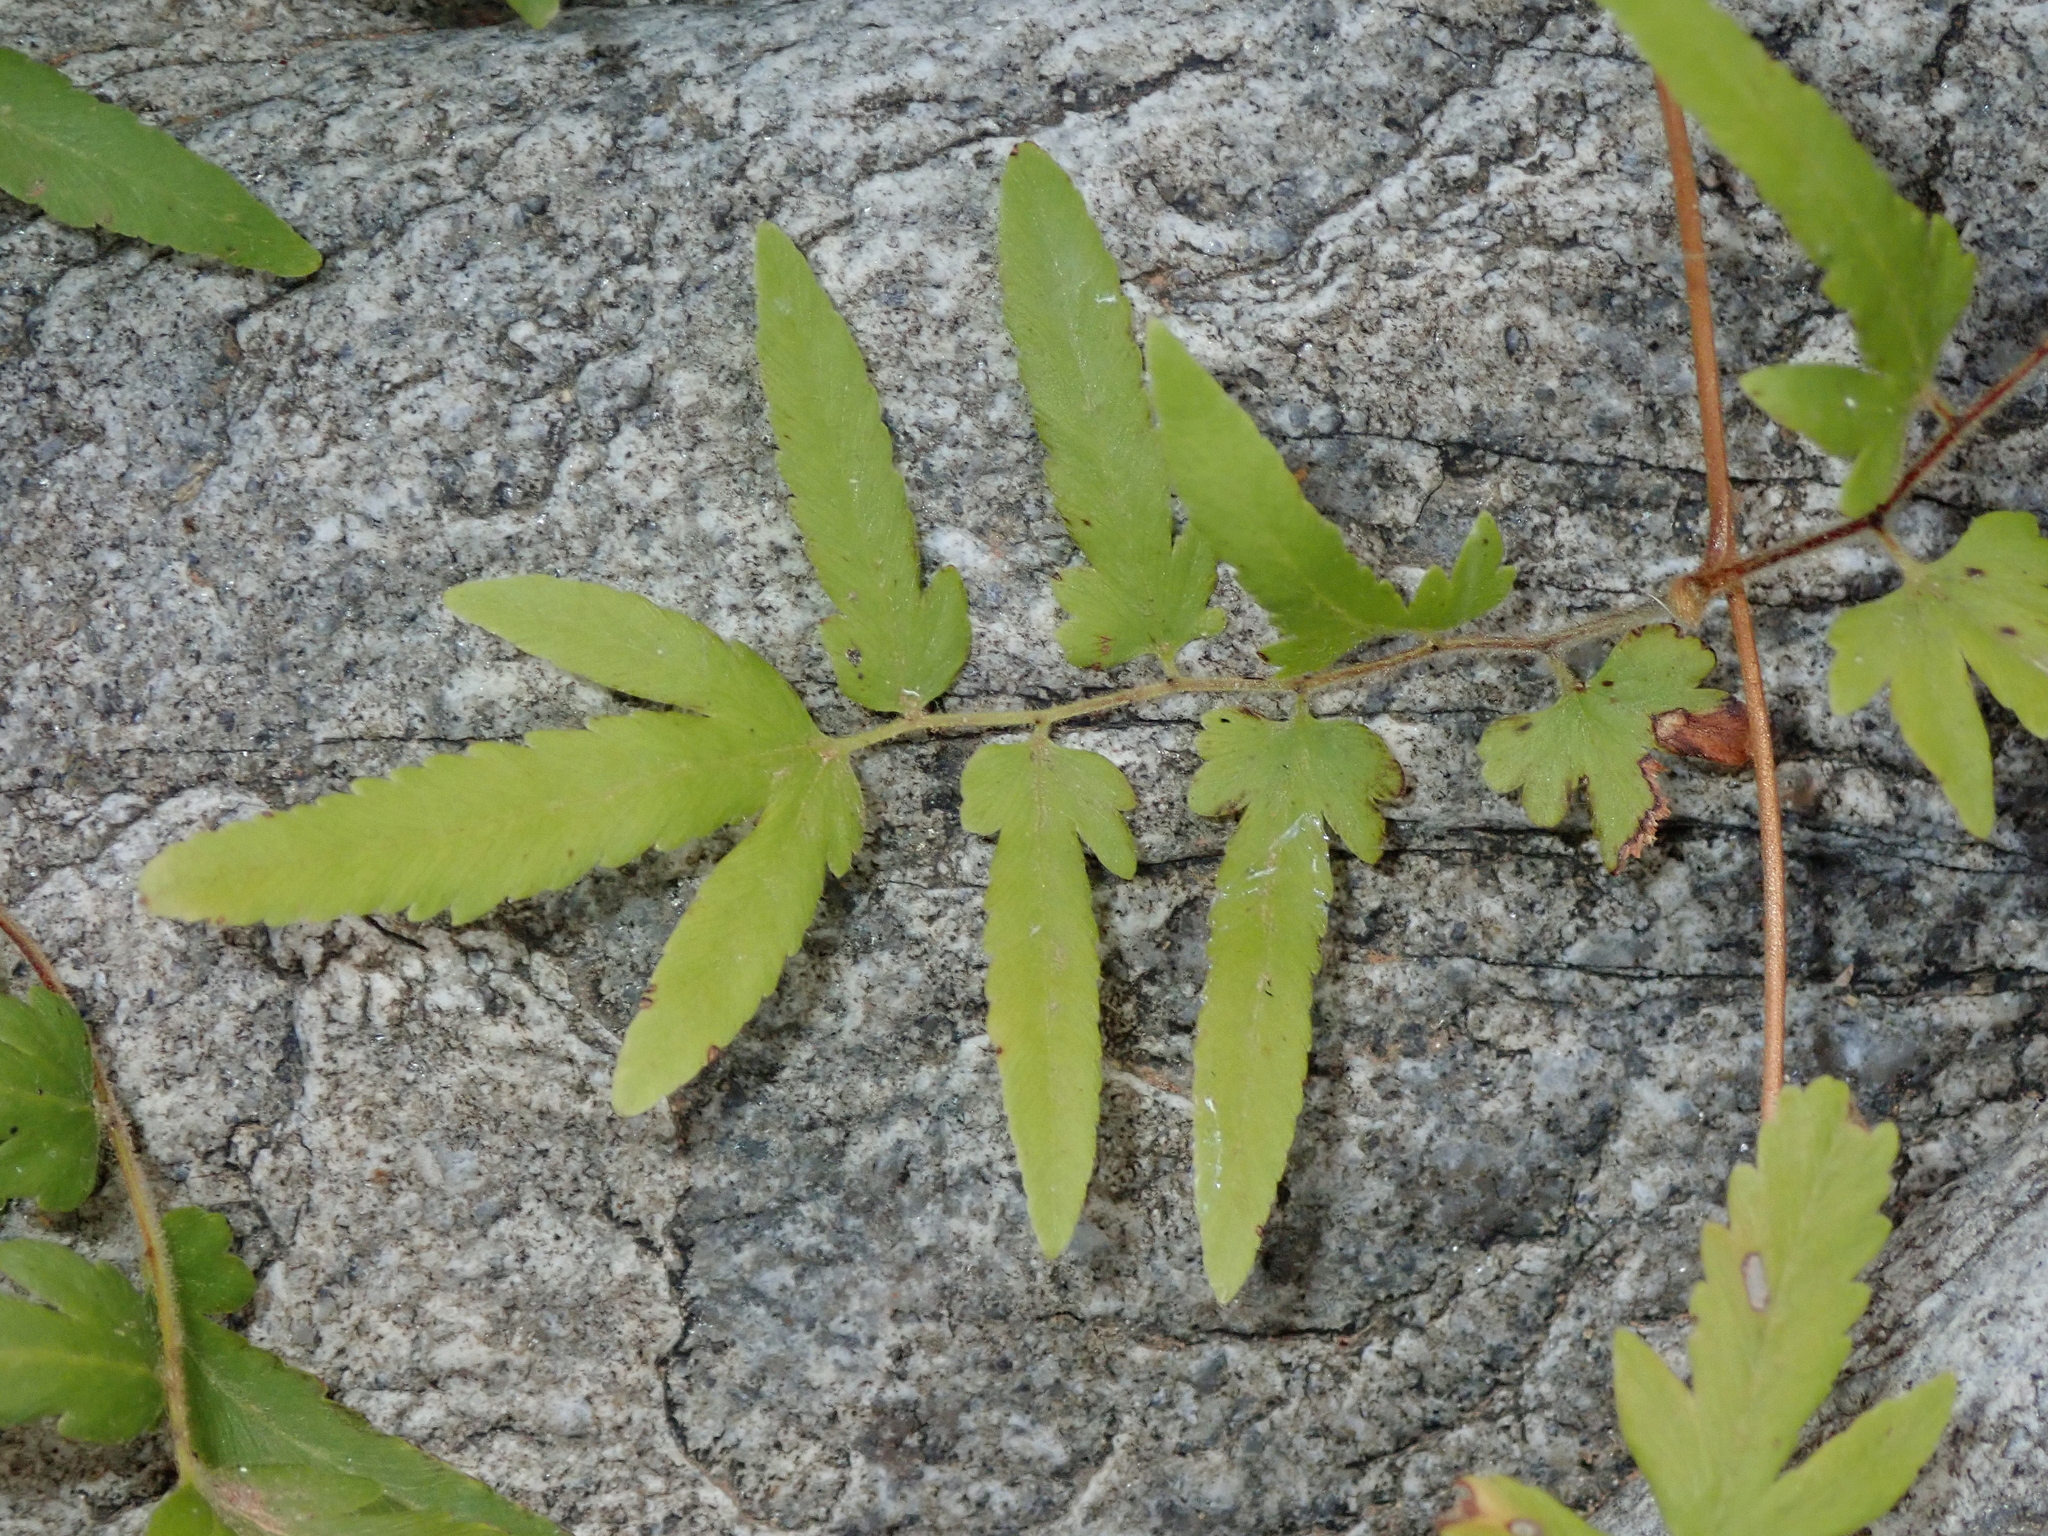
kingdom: Plantae
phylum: Tracheophyta
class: Polypodiopsida
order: Schizaeales
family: Lygodiaceae
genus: Lygodium
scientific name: Lygodium venustum
